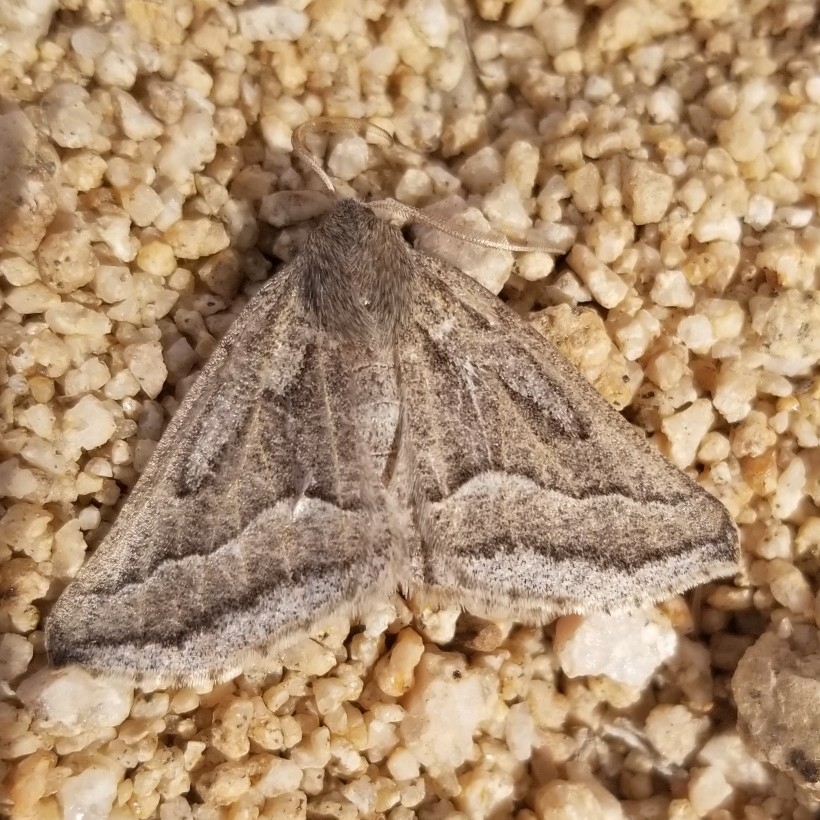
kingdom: Animalia
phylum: Arthropoda
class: Insecta
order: Lepidoptera
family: Geometridae
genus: Tetracis
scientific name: Tetracis formosa
